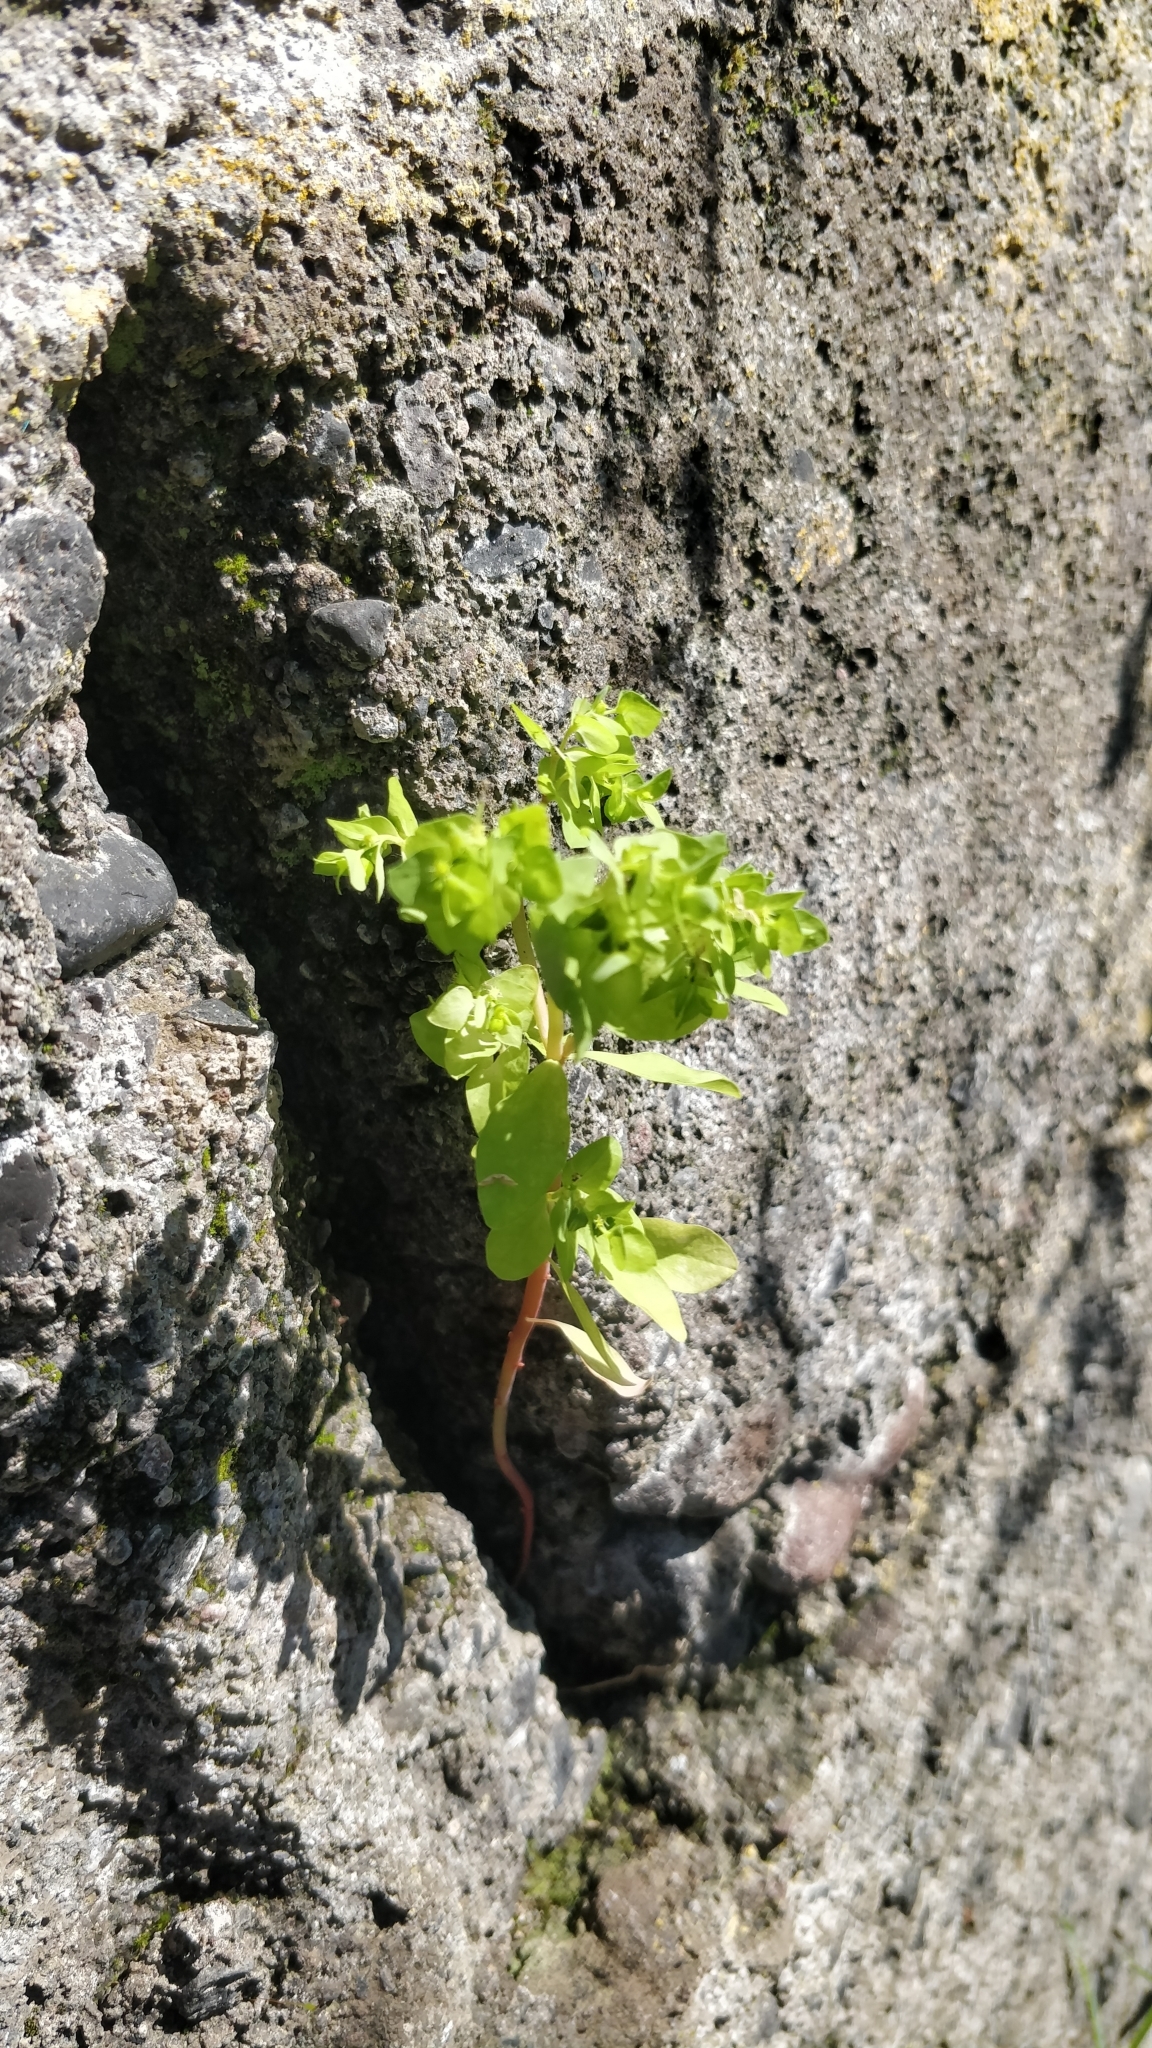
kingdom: Plantae
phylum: Tracheophyta
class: Magnoliopsida
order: Malpighiales
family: Euphorbiaceae
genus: Euphorbia
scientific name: Euphorbia peplus
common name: Petty spurge
